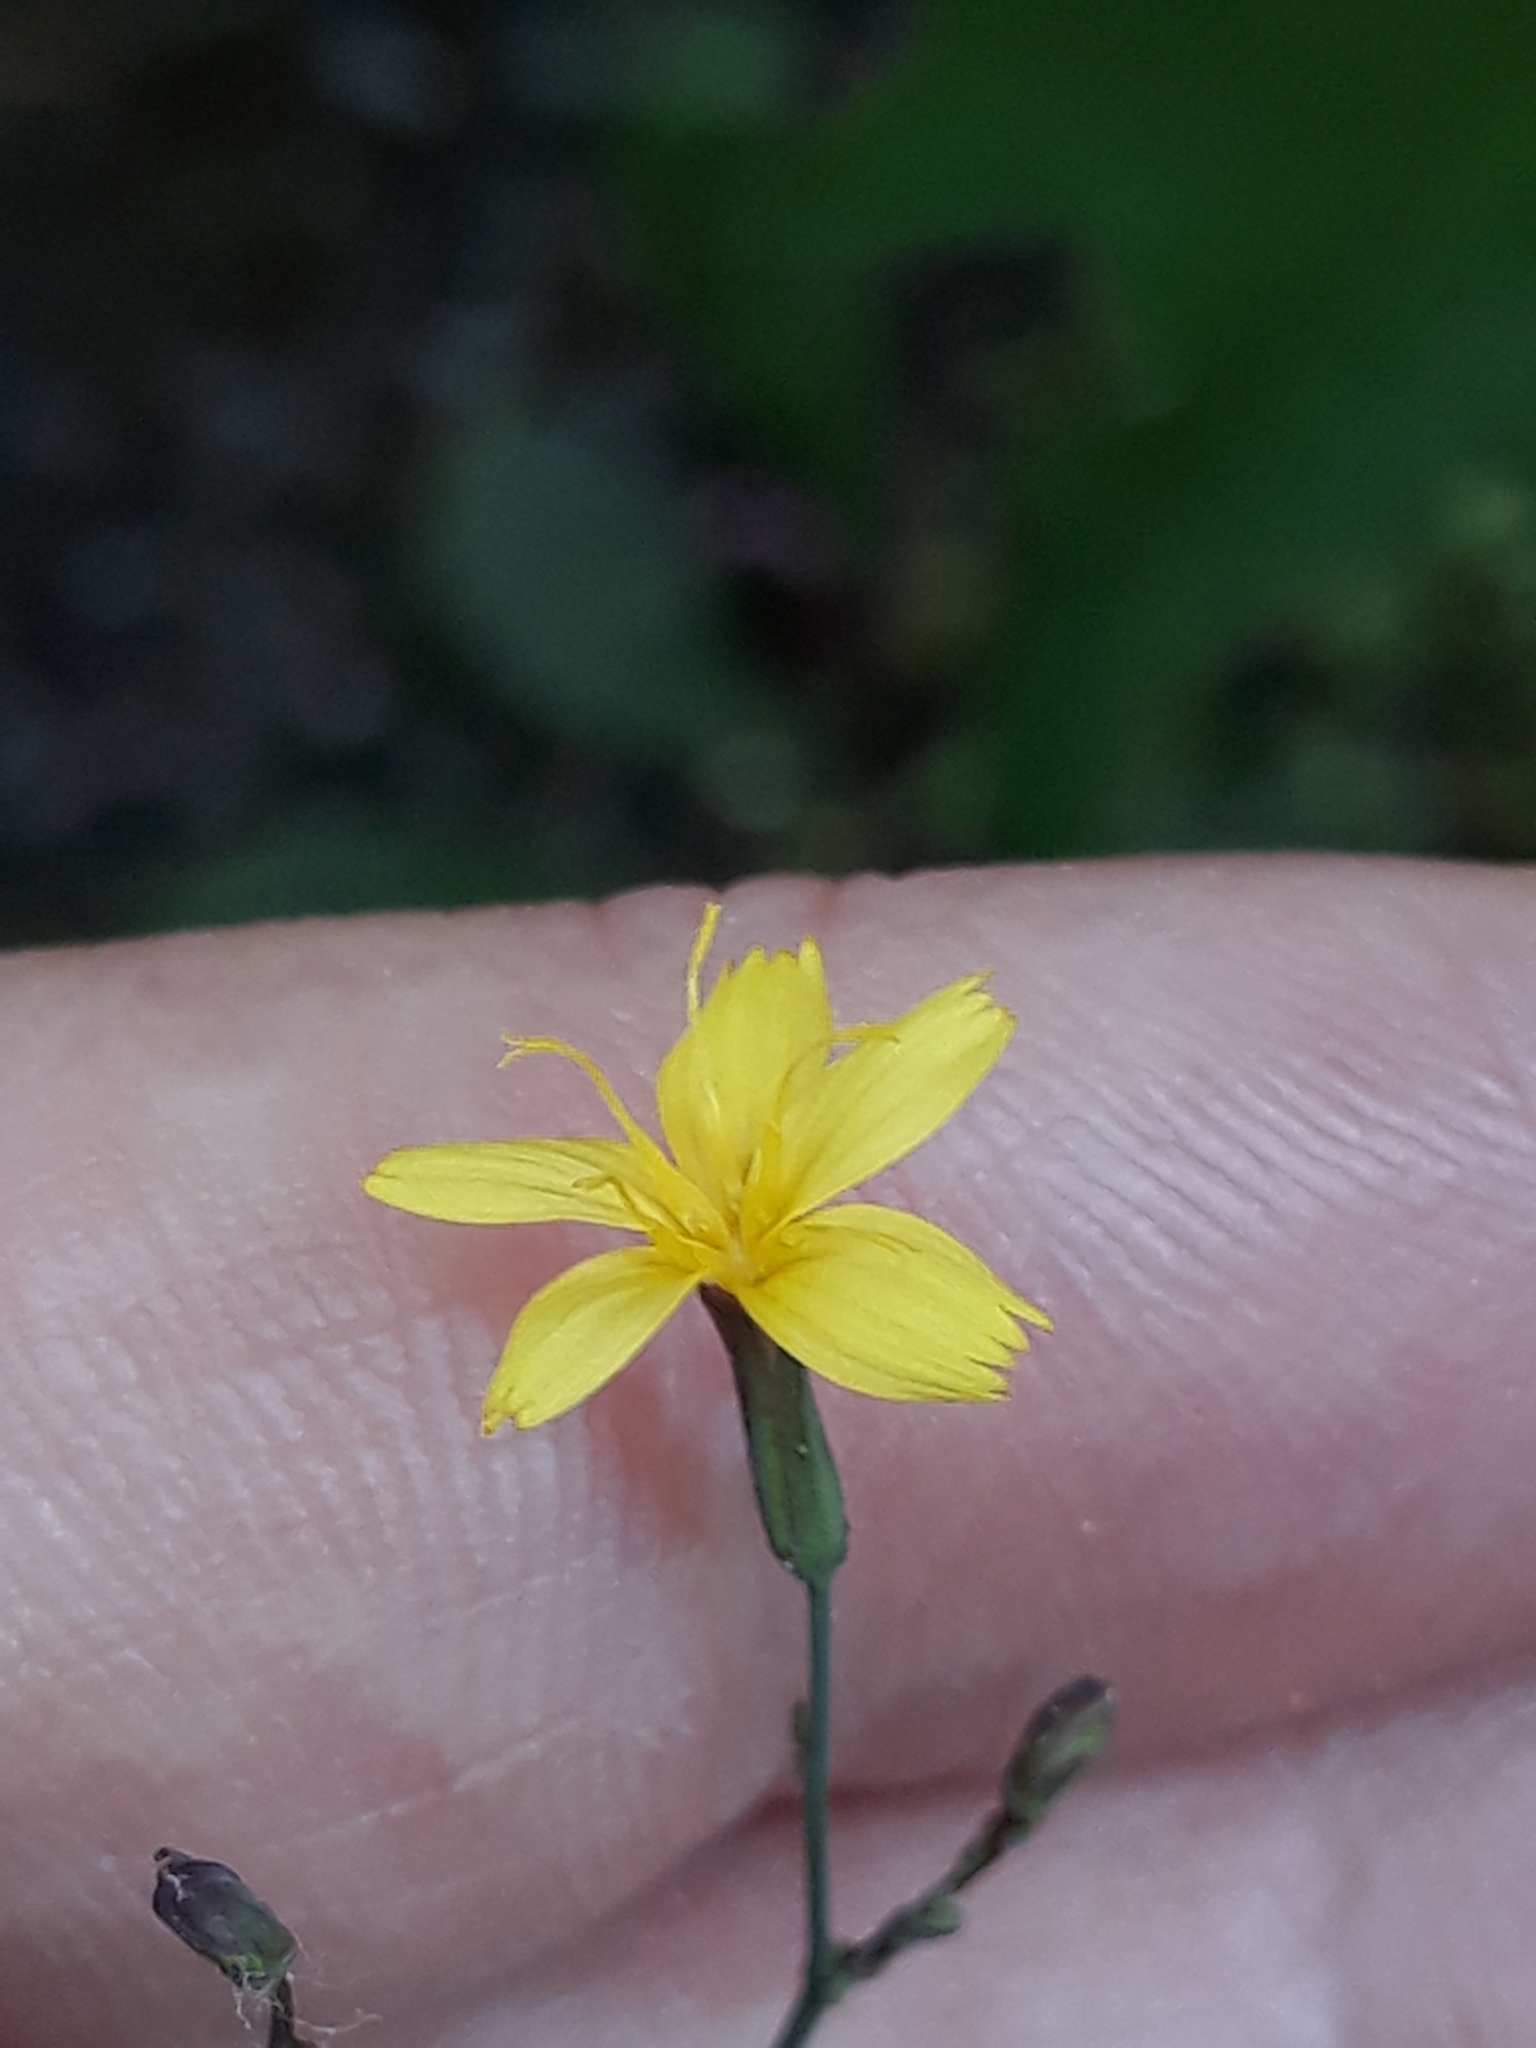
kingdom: Plantae
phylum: Tracheophyta
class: Magnoliopsida
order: Asterales
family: Asteraceae
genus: Mycelis
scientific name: Mycelis muralis
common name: Wall lettuce
